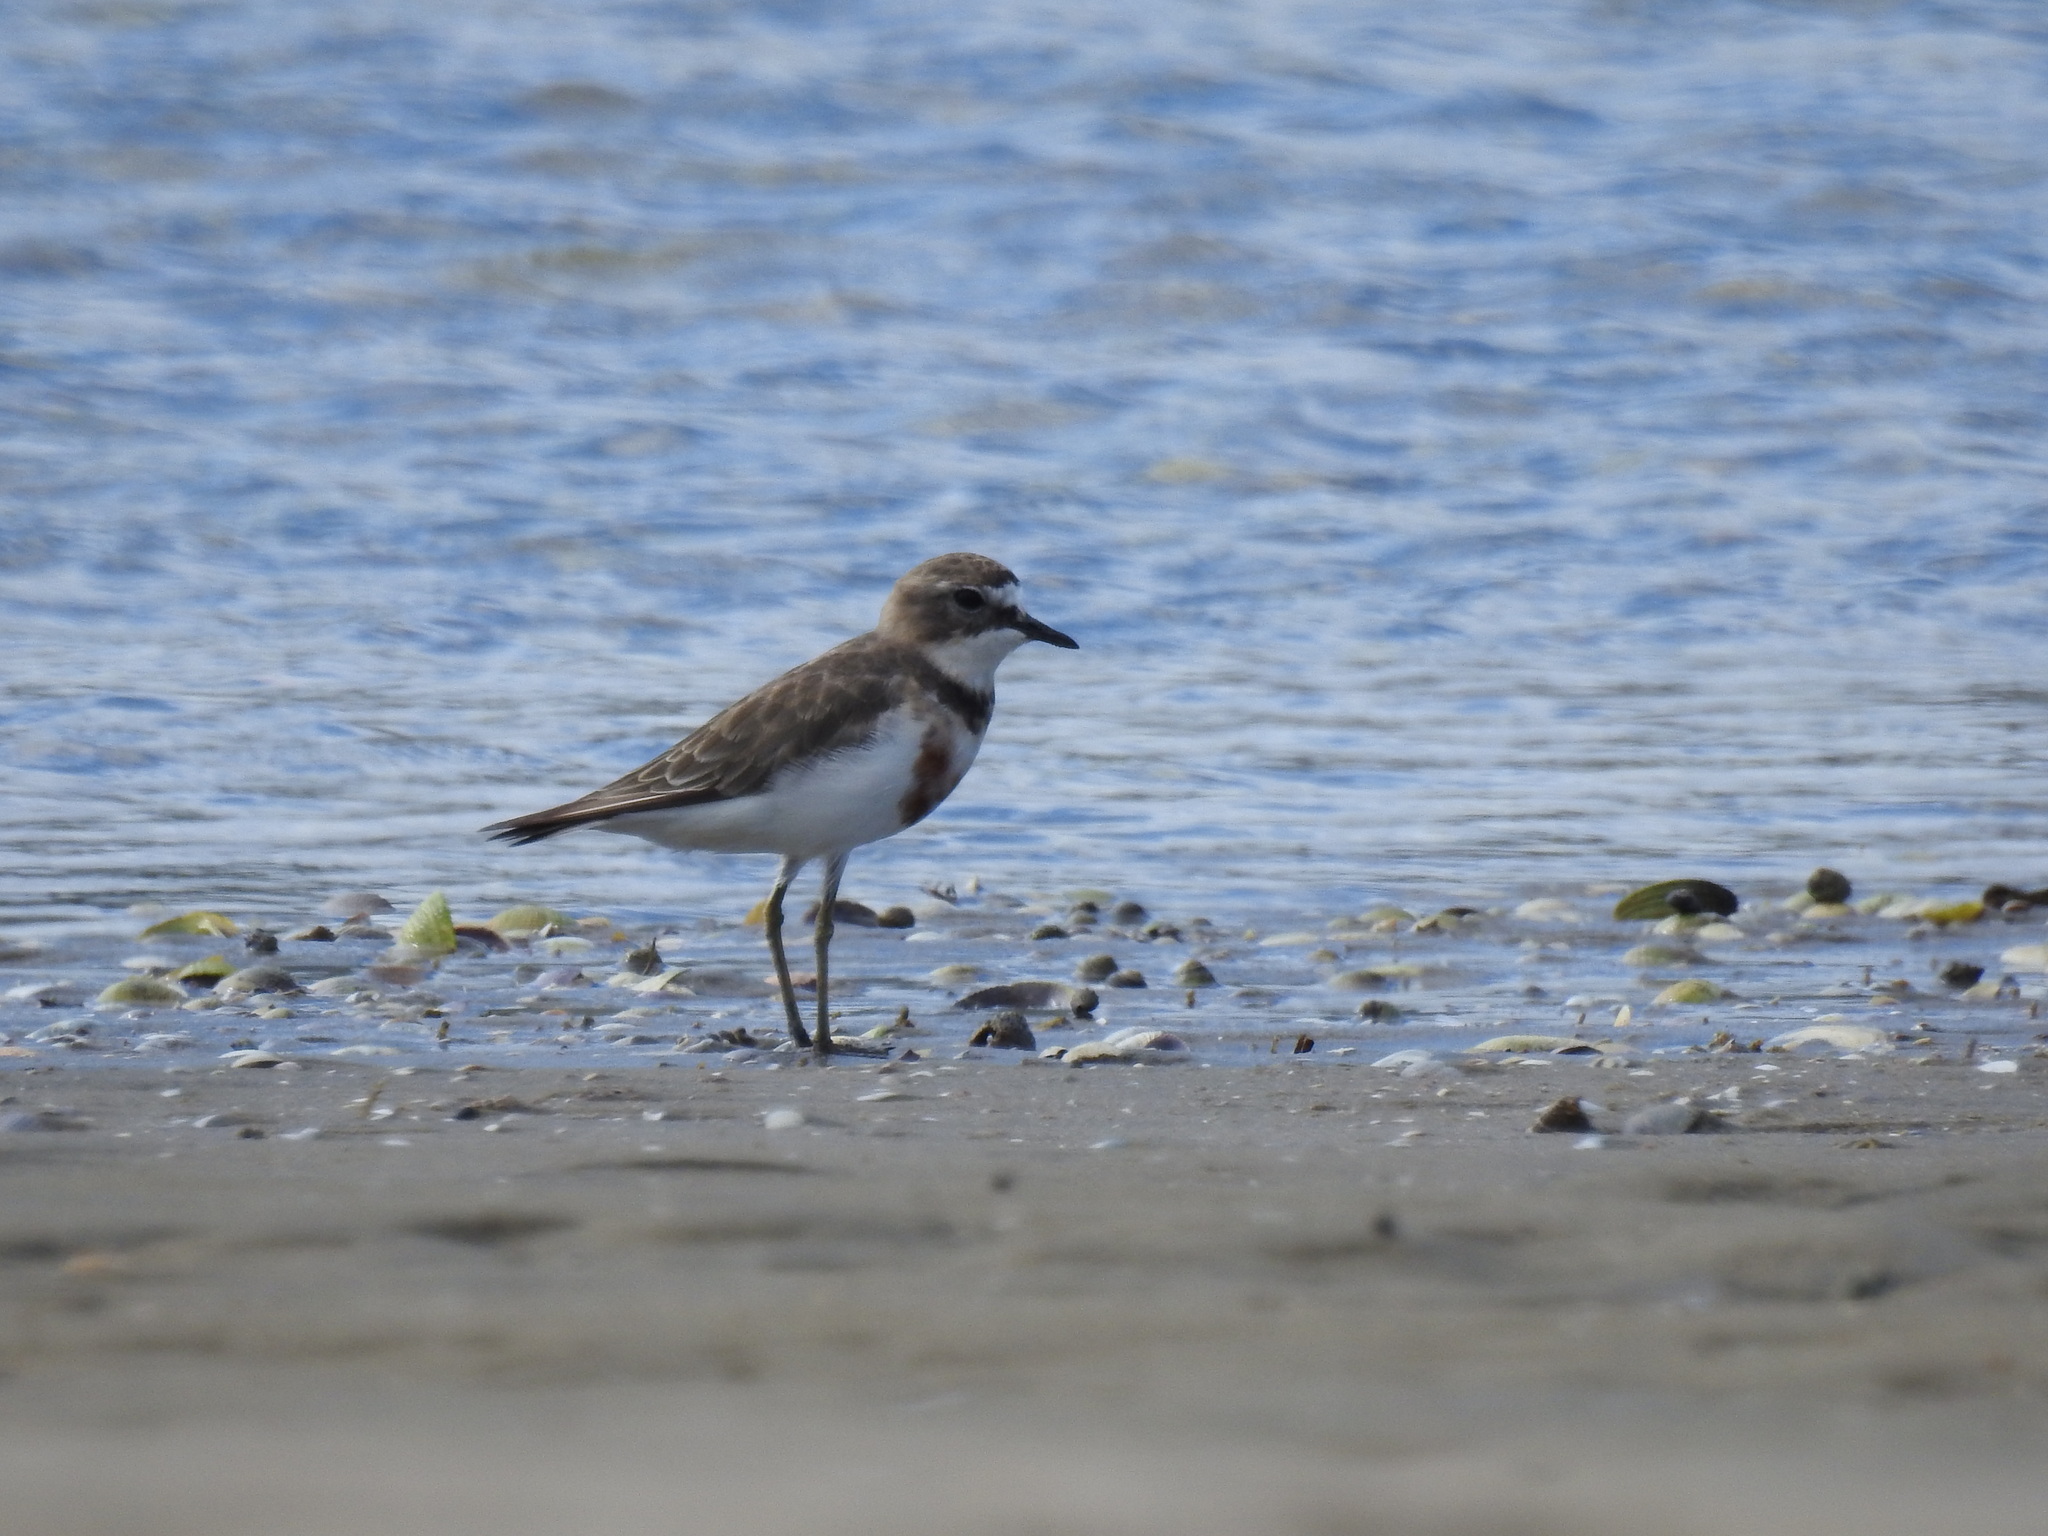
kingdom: Animalia
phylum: Chordata
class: Aves
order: Charadriiformes
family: Charadriidae
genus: Anarhynchus
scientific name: Anarhynchus
